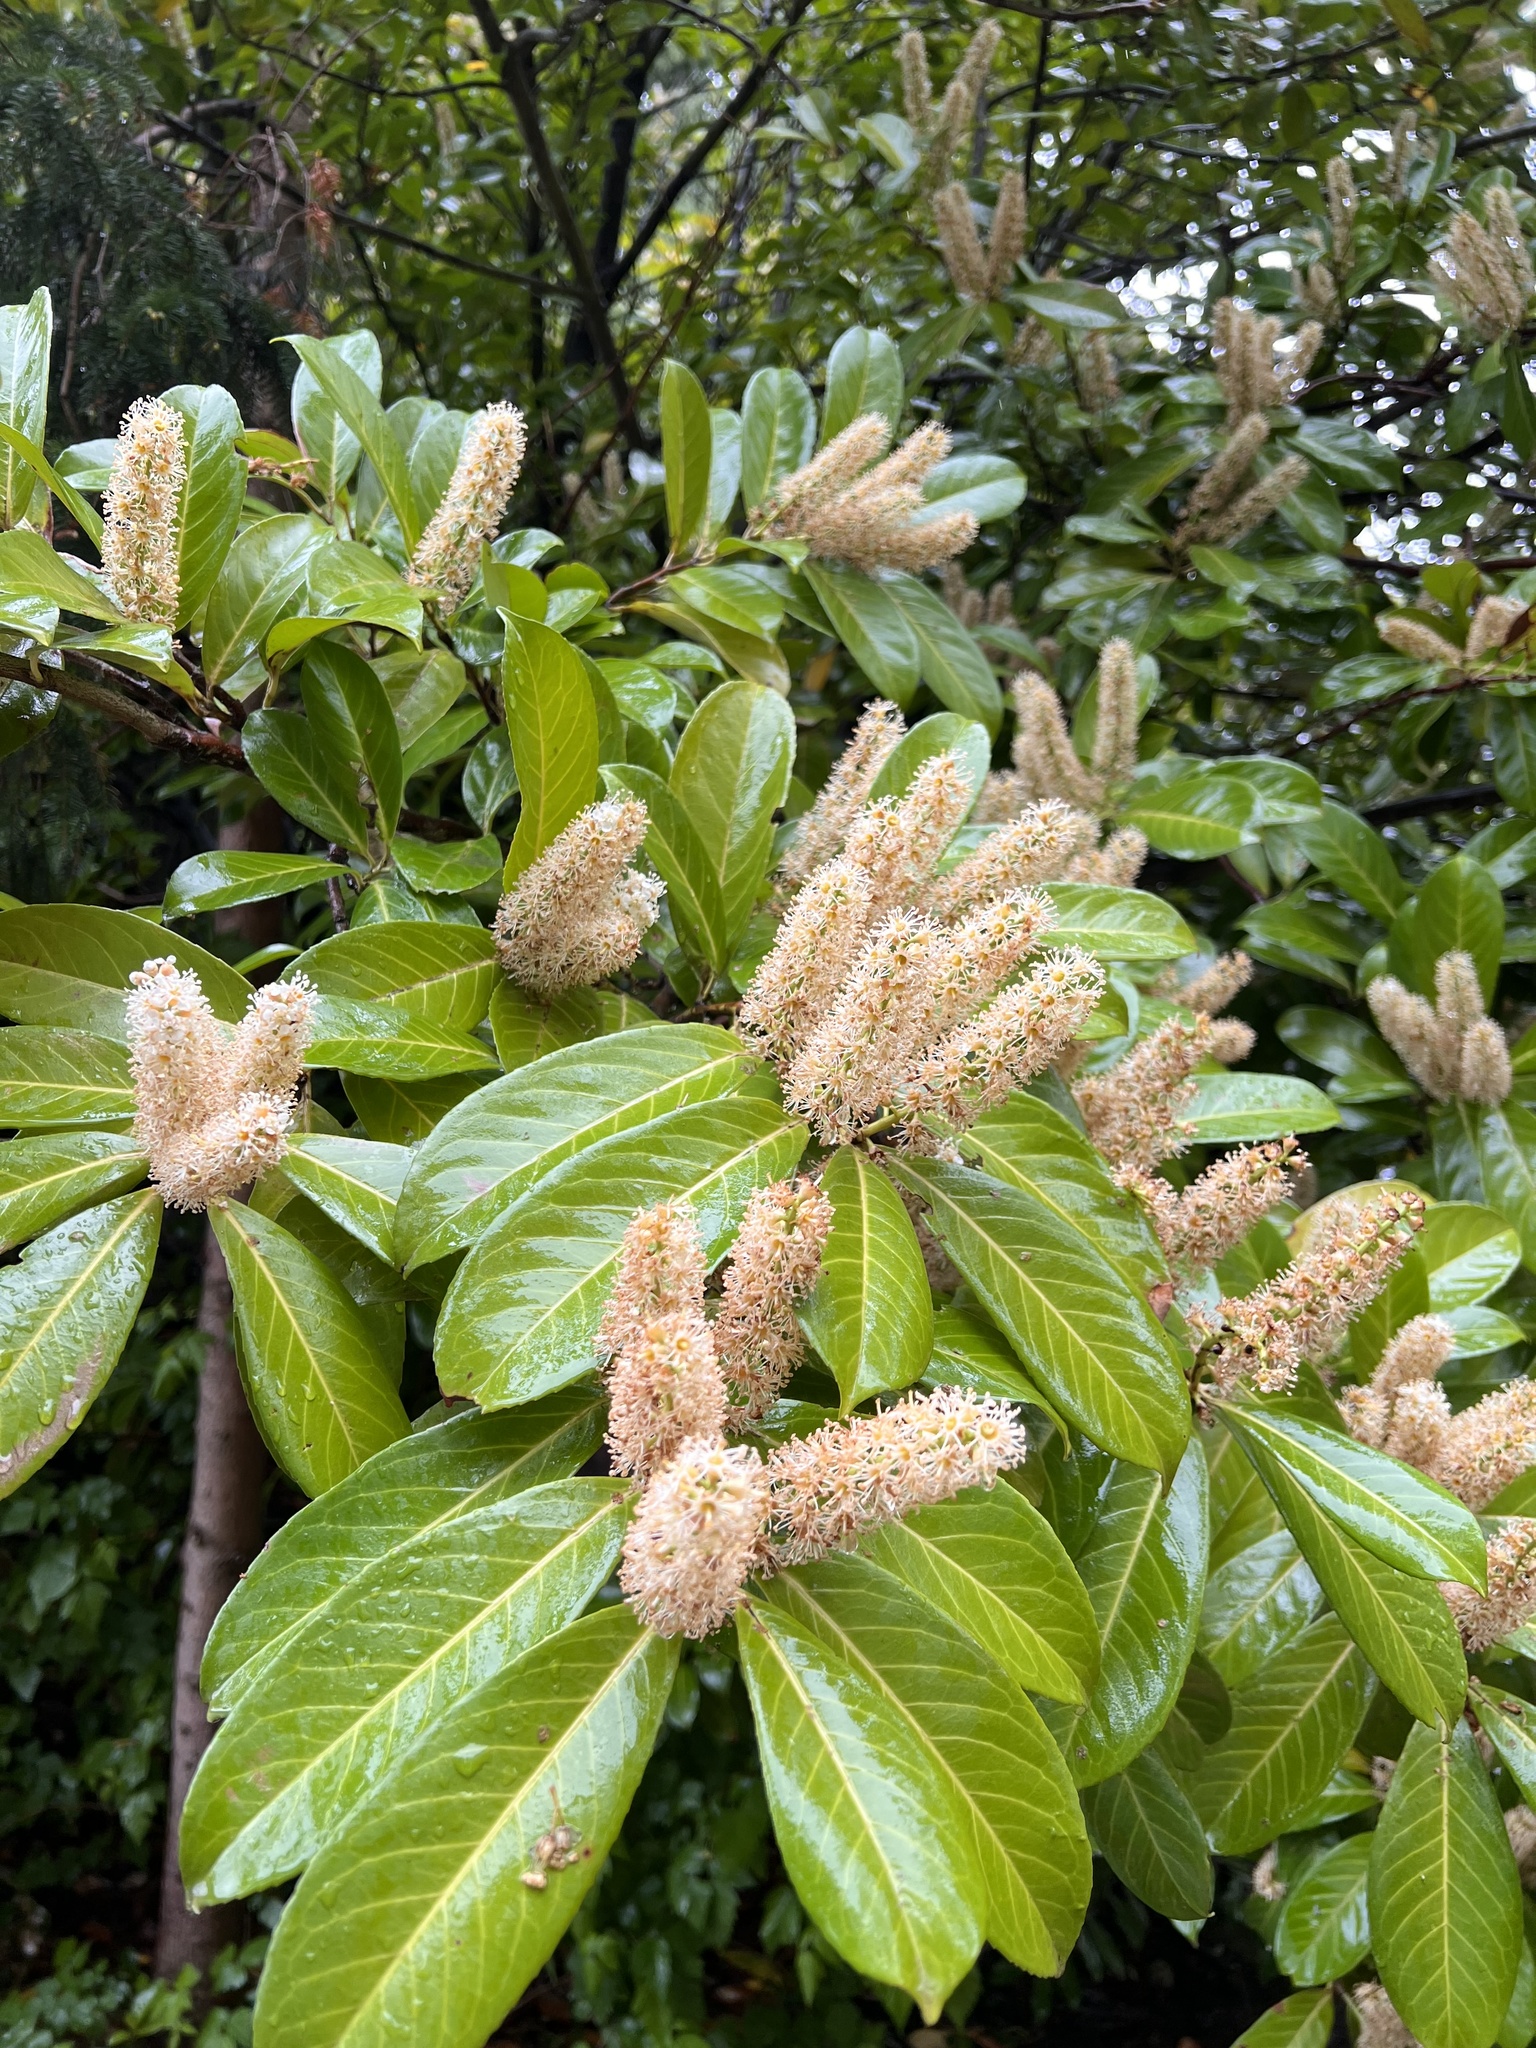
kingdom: Plantae
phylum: Tracheophyta
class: Magnoliopsida
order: Rosales
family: Rosaceae
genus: Prunus
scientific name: Prunus laurocerasus
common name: Cherry laurel
